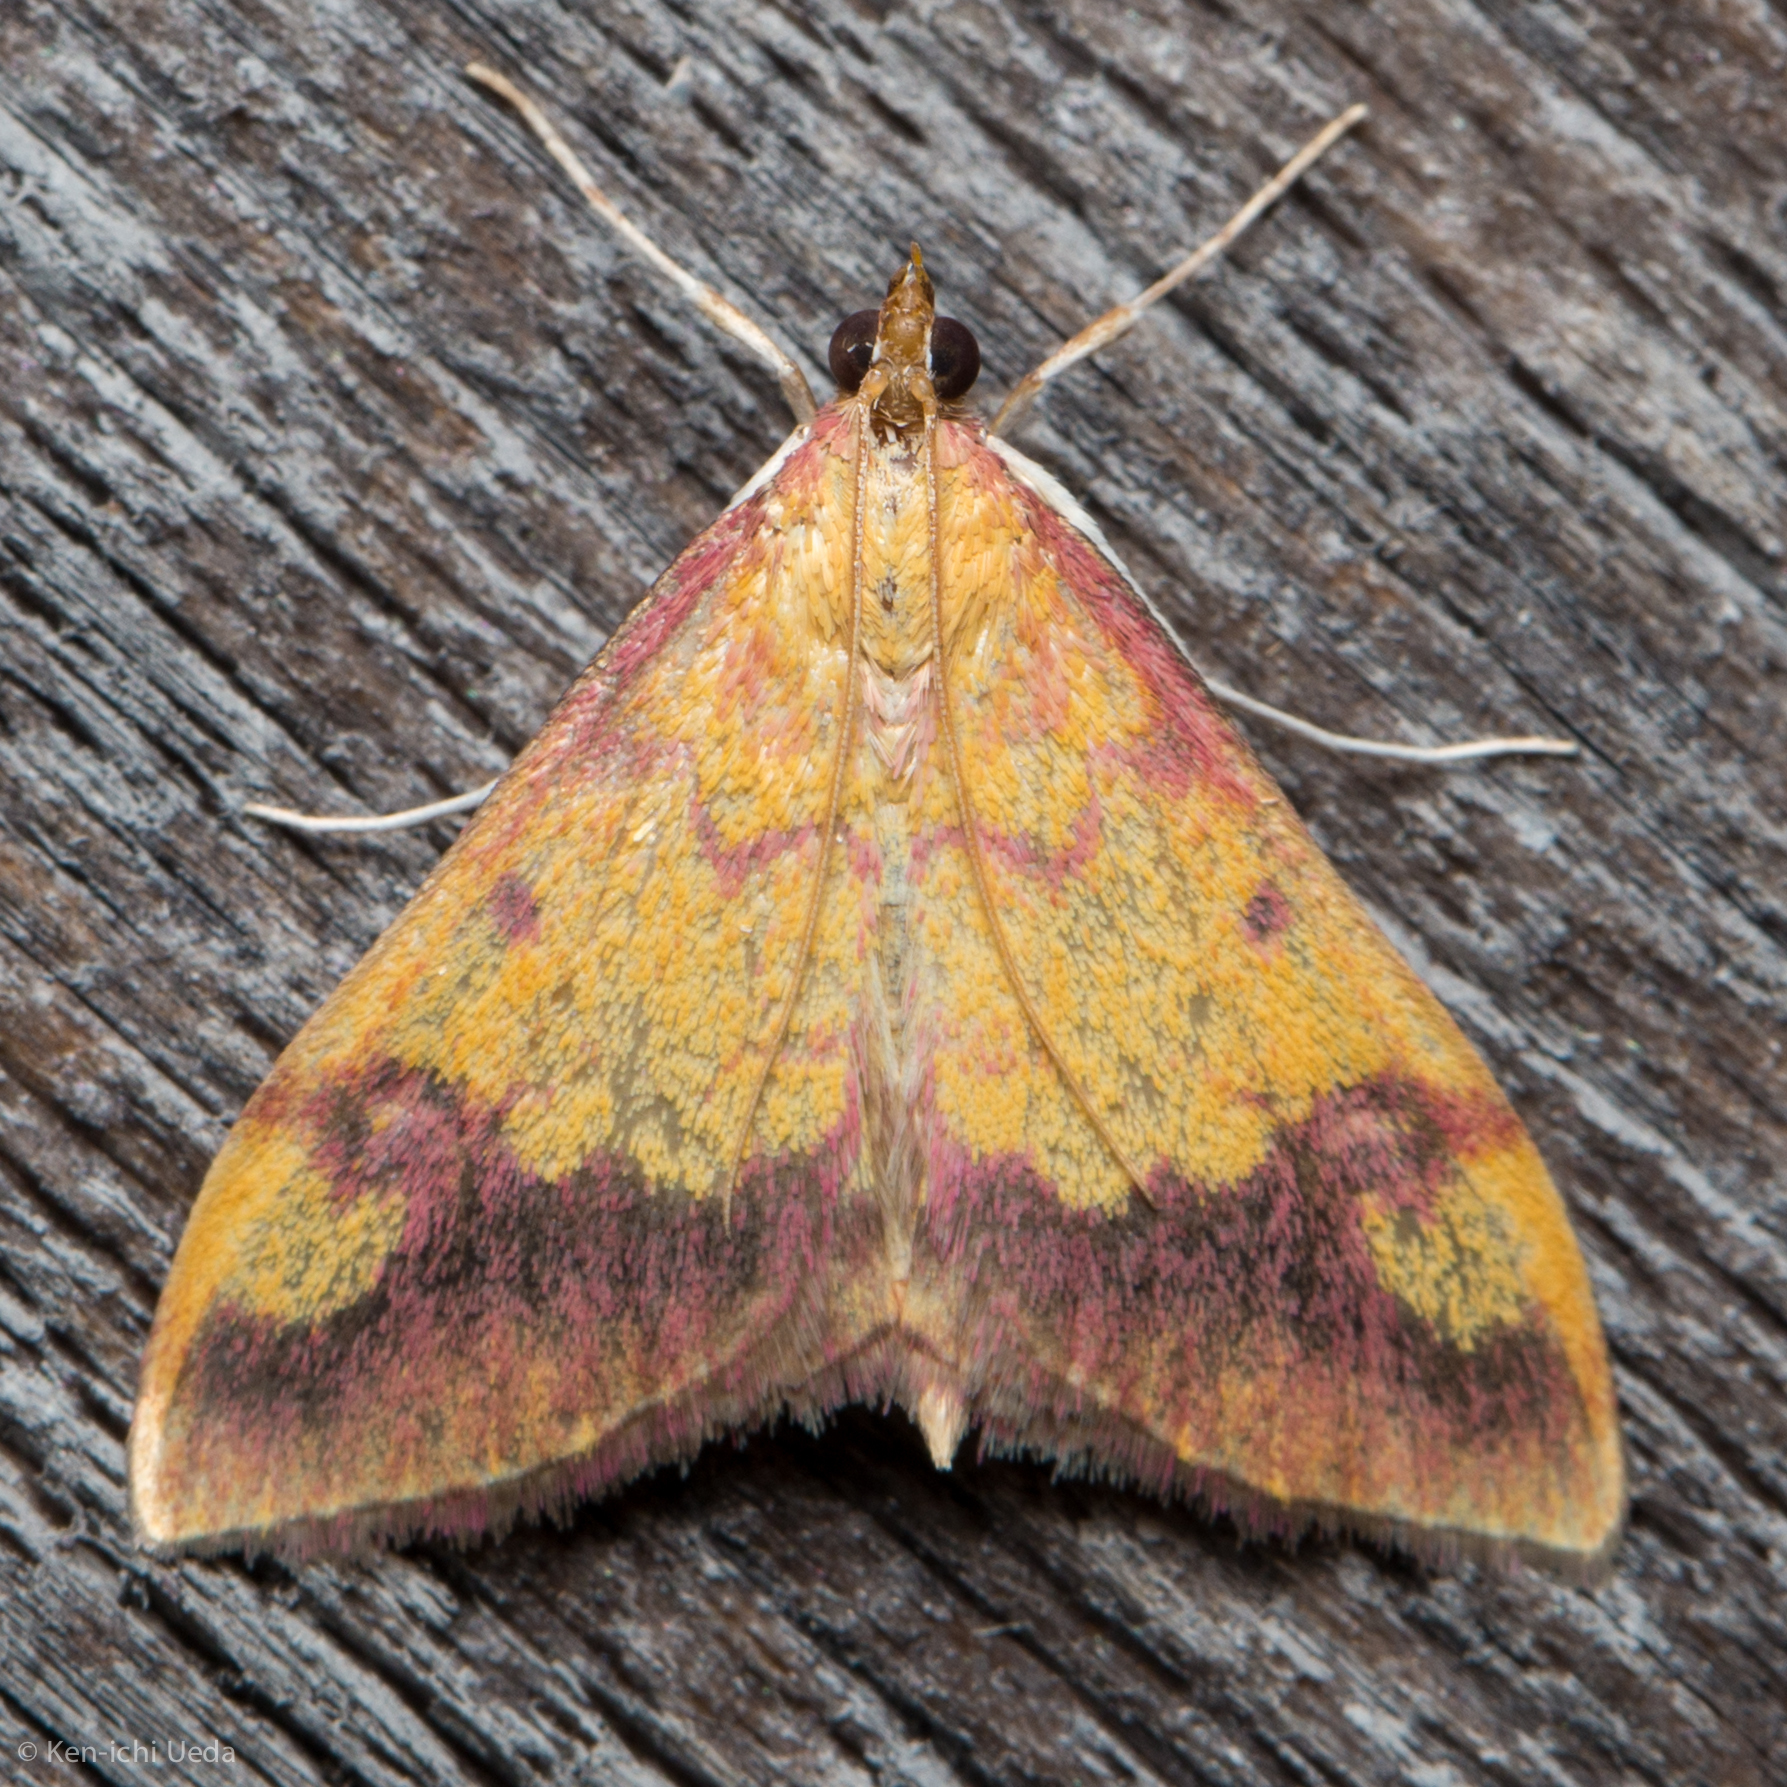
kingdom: Animalia
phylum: Arthropoda
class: Insecta
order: Lepidoptera
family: Crambidae
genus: Pyrausta
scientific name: Pyrausta perrubralis
